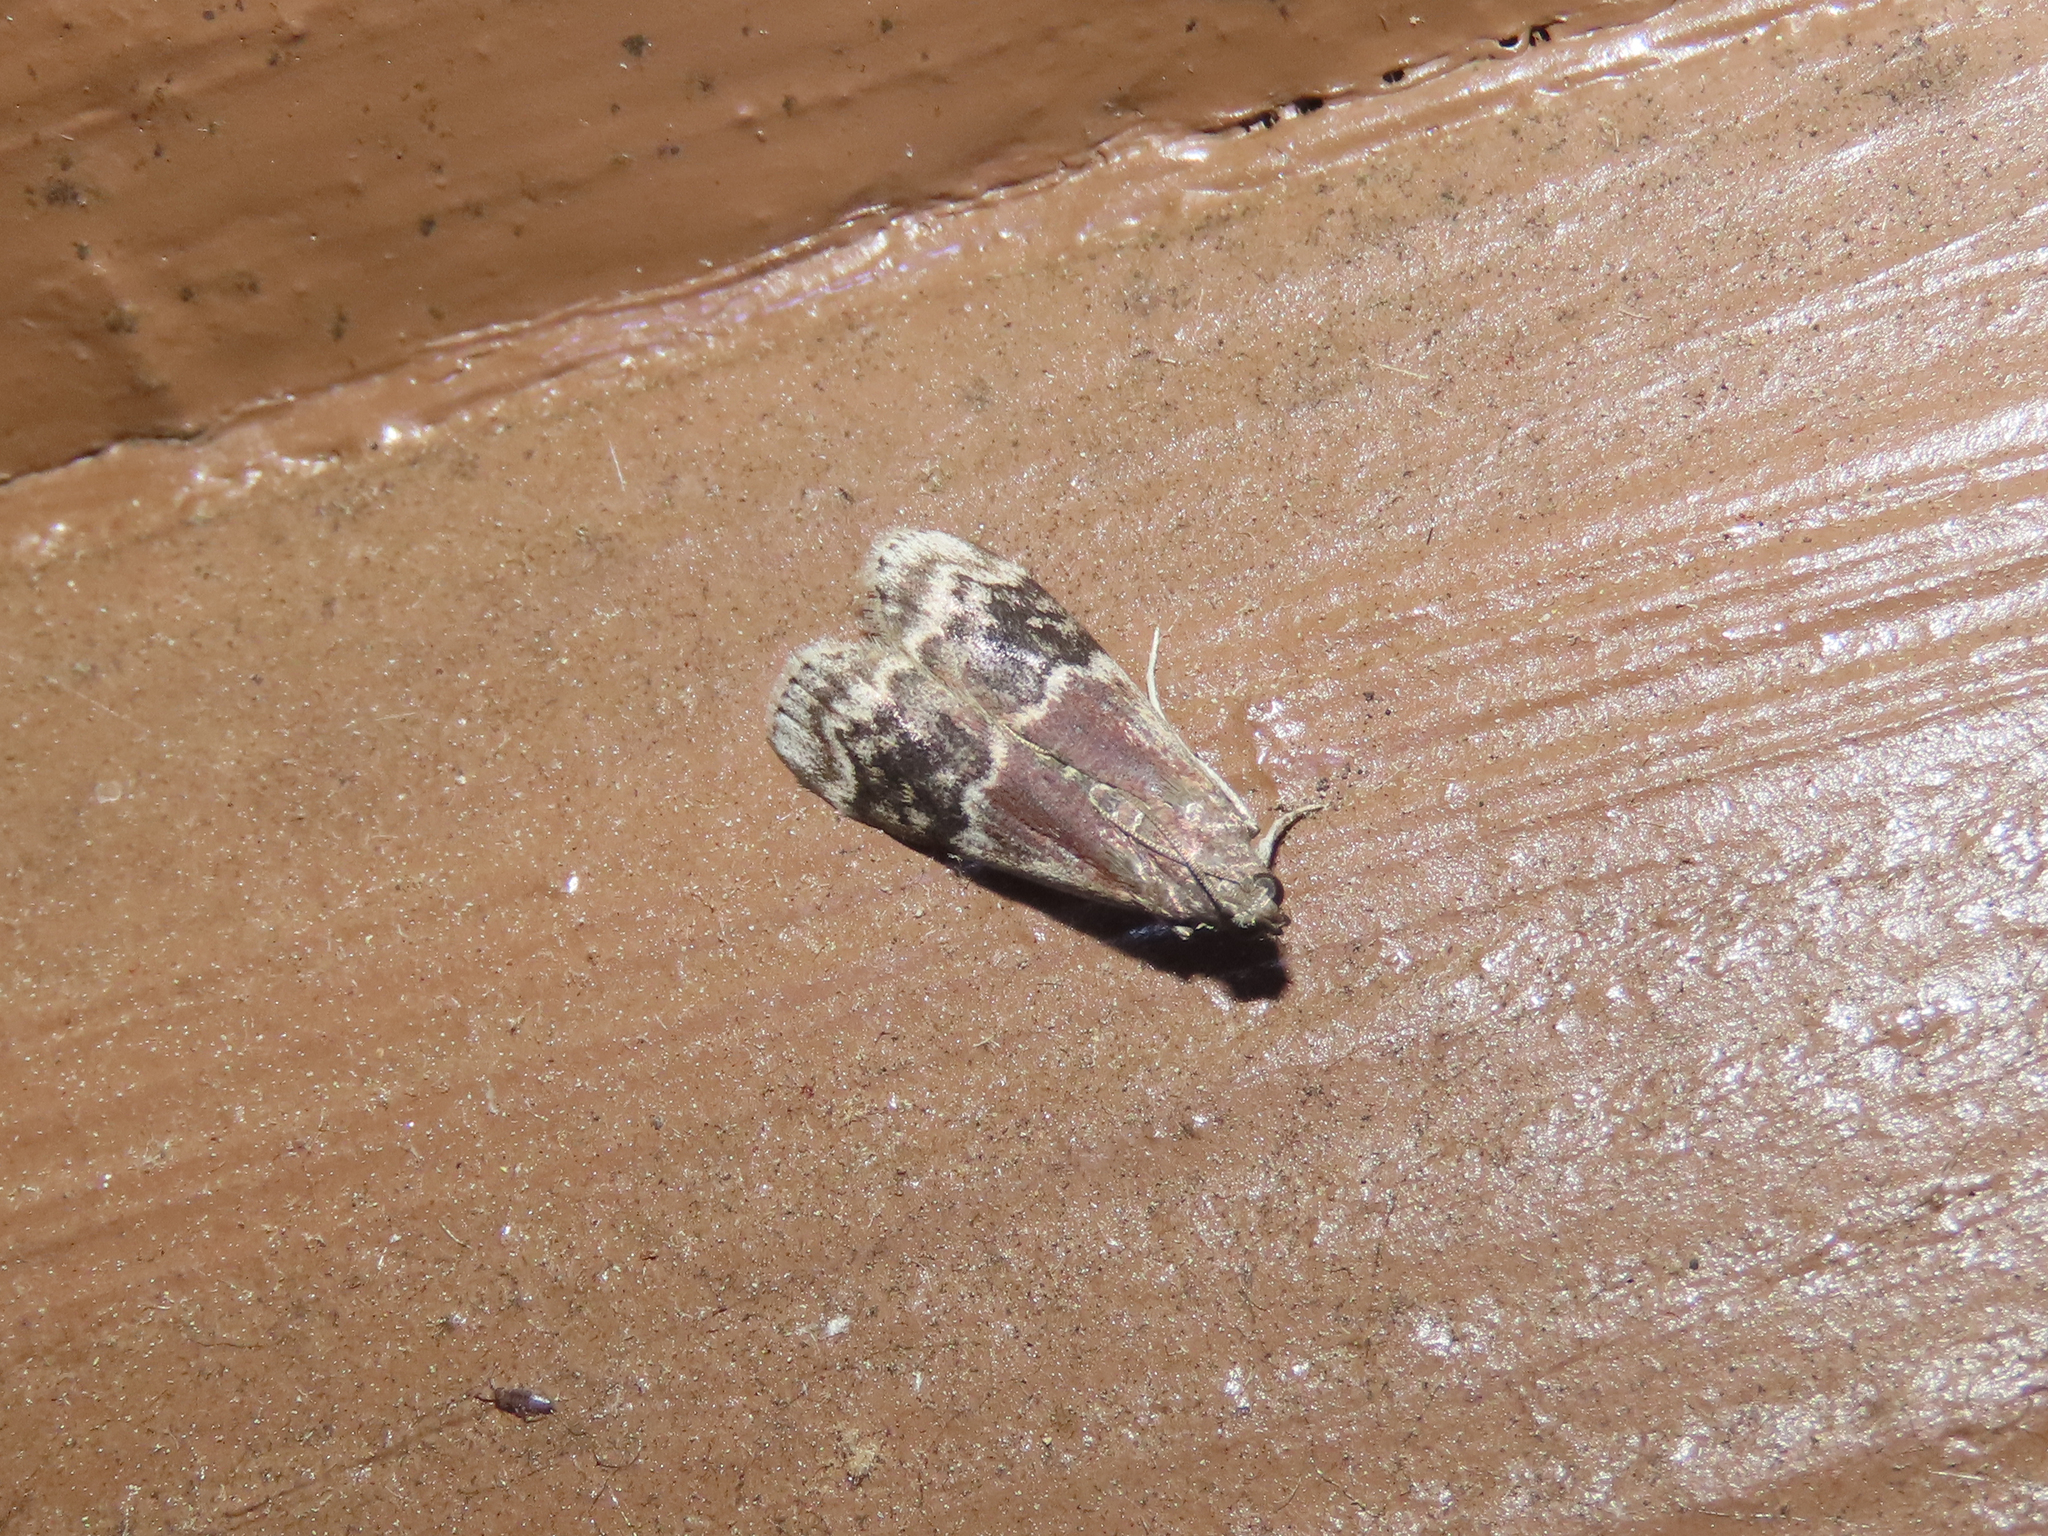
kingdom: Animalia
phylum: Arthropoda
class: Insecta
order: Lepidoptera
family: Pyralidae
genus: Euzophera
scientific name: Euzophera semifuneralis
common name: American plum borer moth
